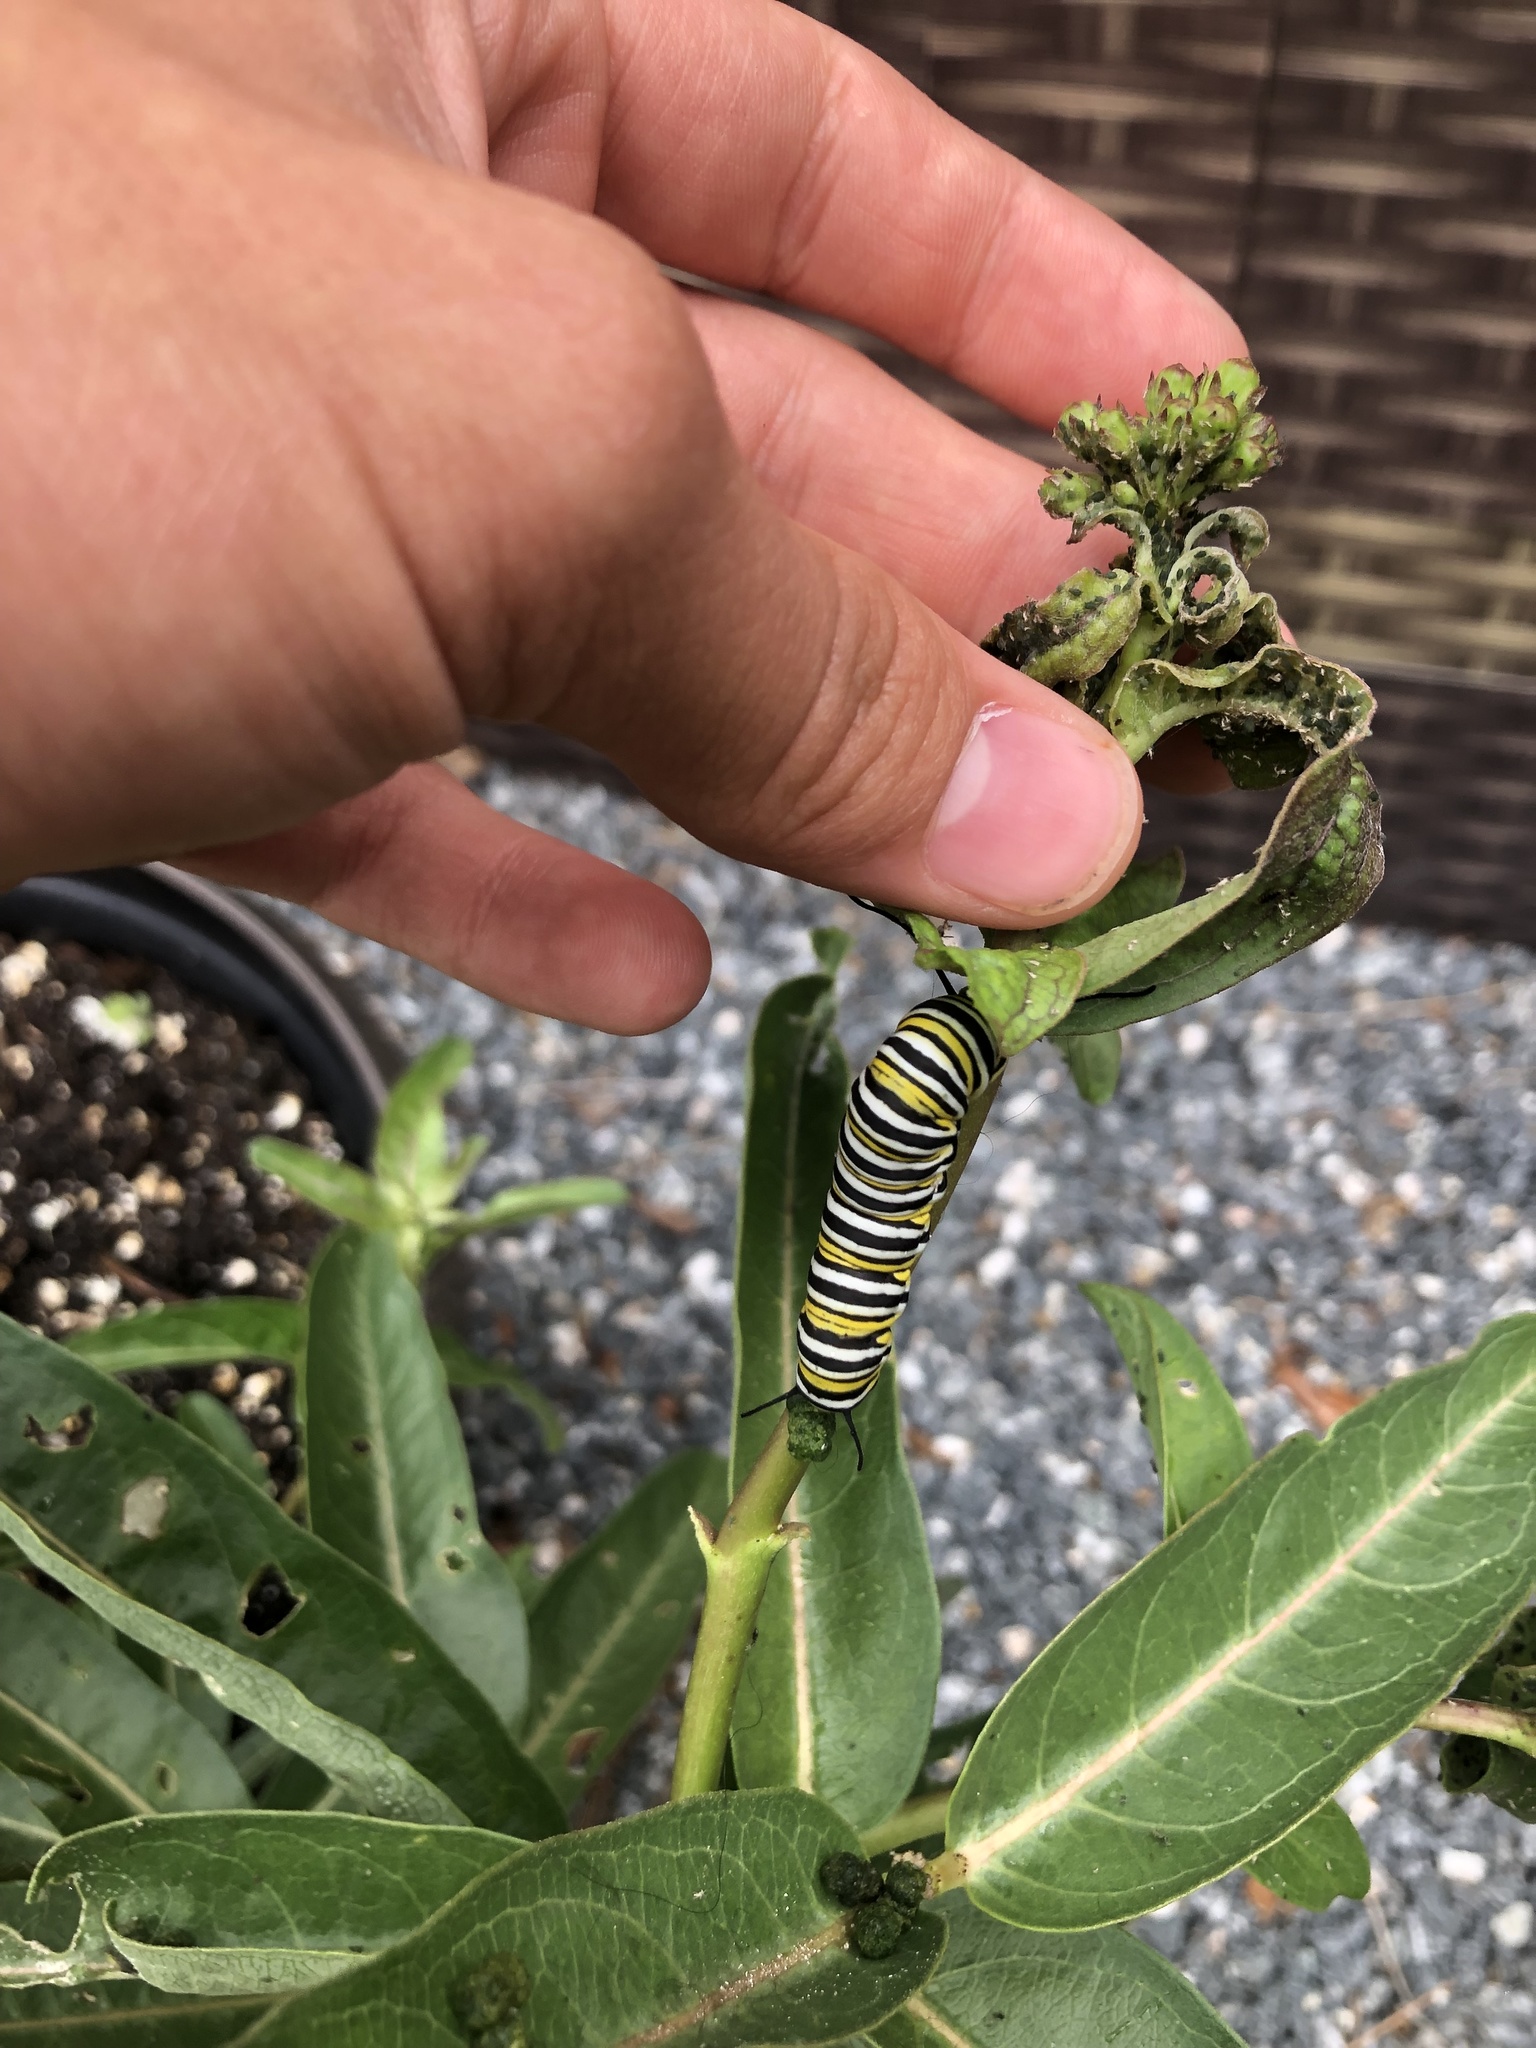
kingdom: Animalia
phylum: Arthropoda
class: Insecta
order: Lepidoptera
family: Nymphalidae
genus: Danaus
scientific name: Danaus plexippus
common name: Monarch
